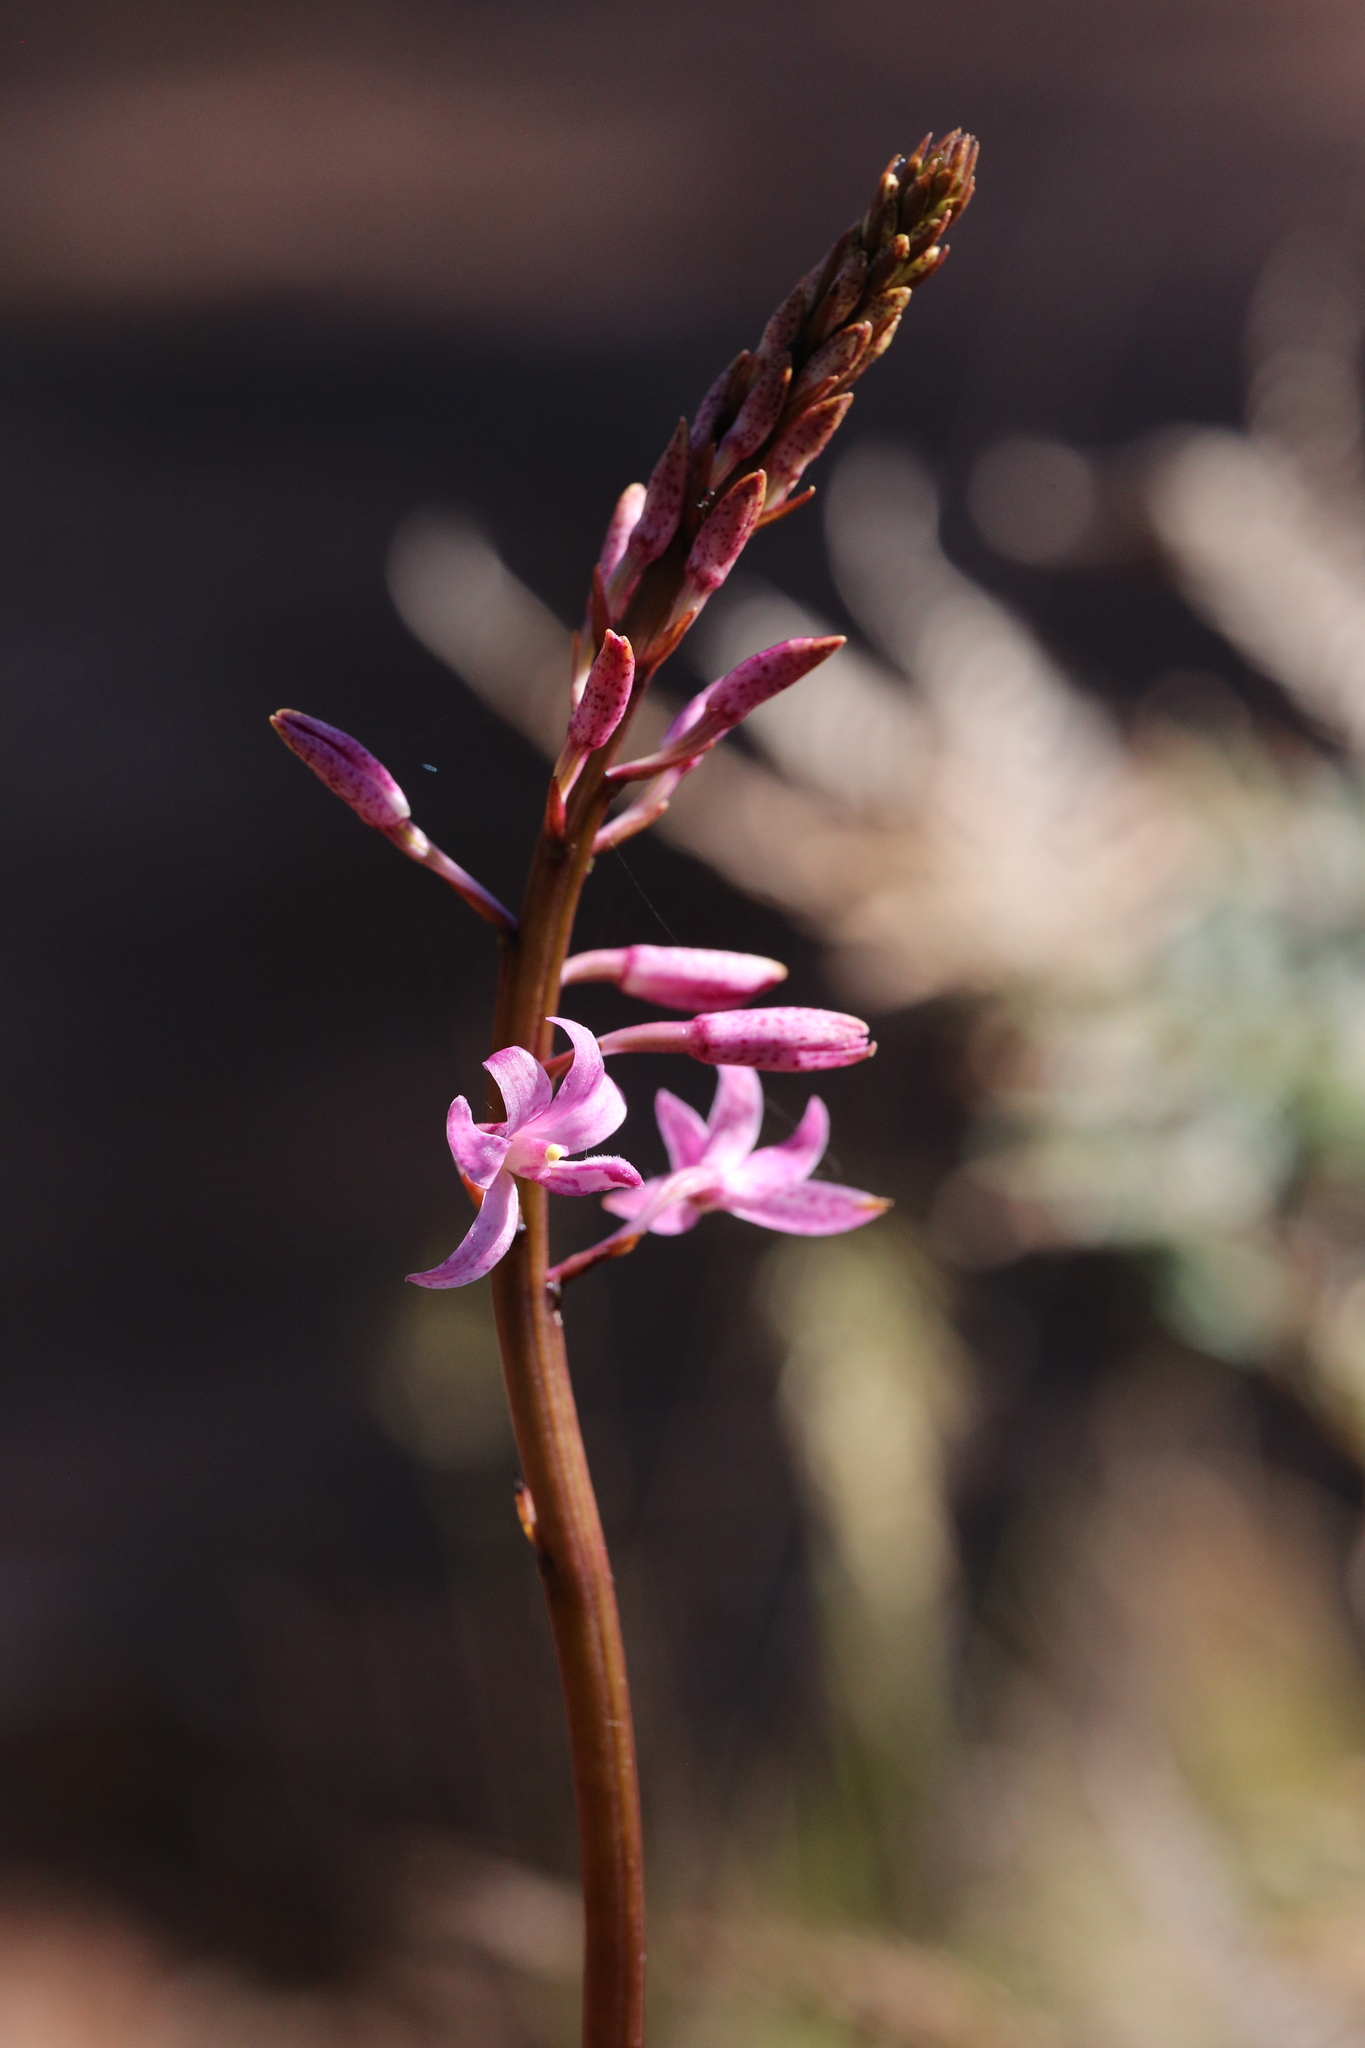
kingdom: Plantae
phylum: Tracheophyta
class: Liliopsida
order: Asparagales
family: Orchidaceae
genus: Dipodium
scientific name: Dipodium roseum
